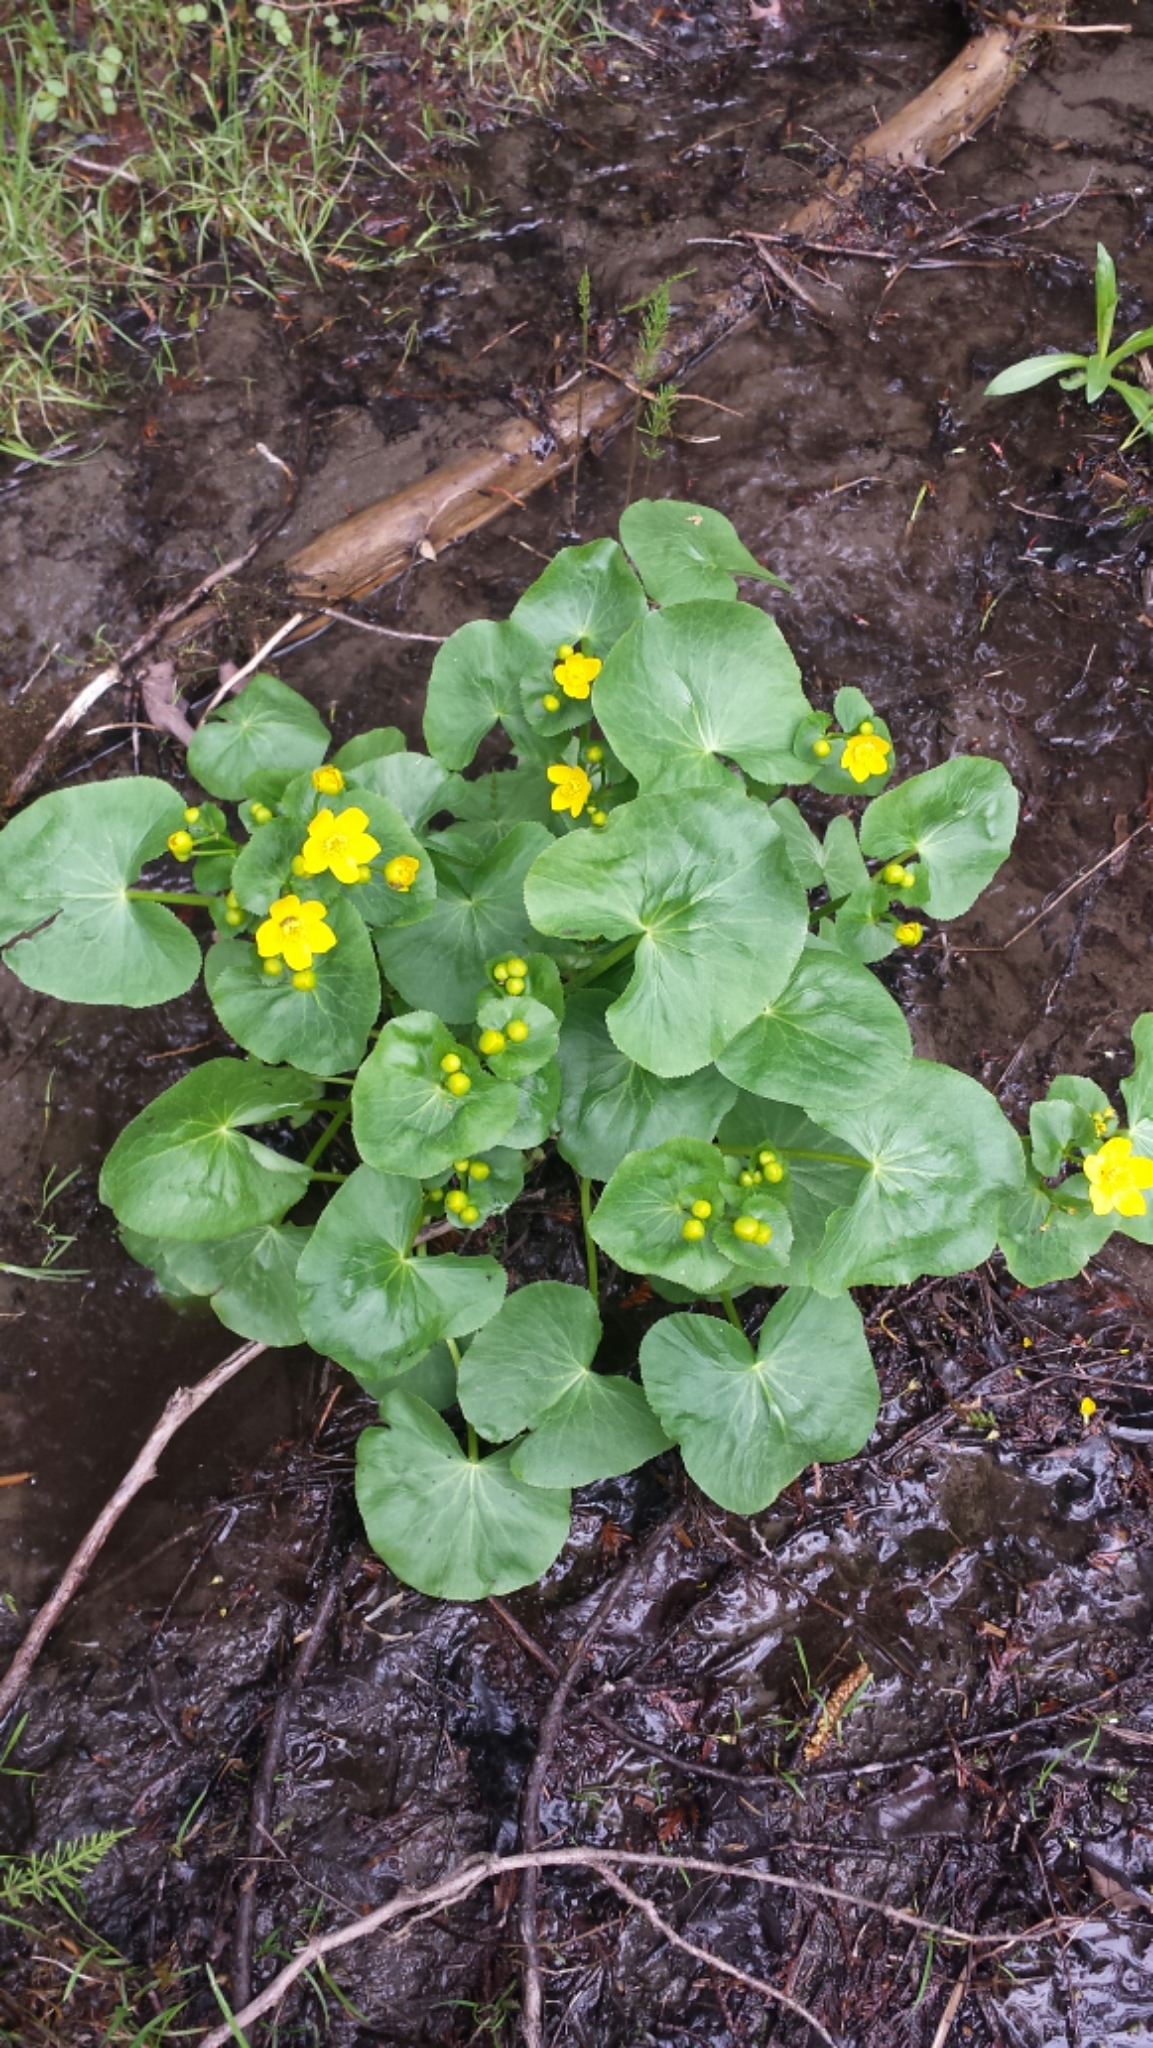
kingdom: Plantae
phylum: Tracheophyta
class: Magnoliopsida
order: Ranunculales
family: Ranunculaceae
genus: Caltha
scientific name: Caltha palustris
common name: Marsh marigold
